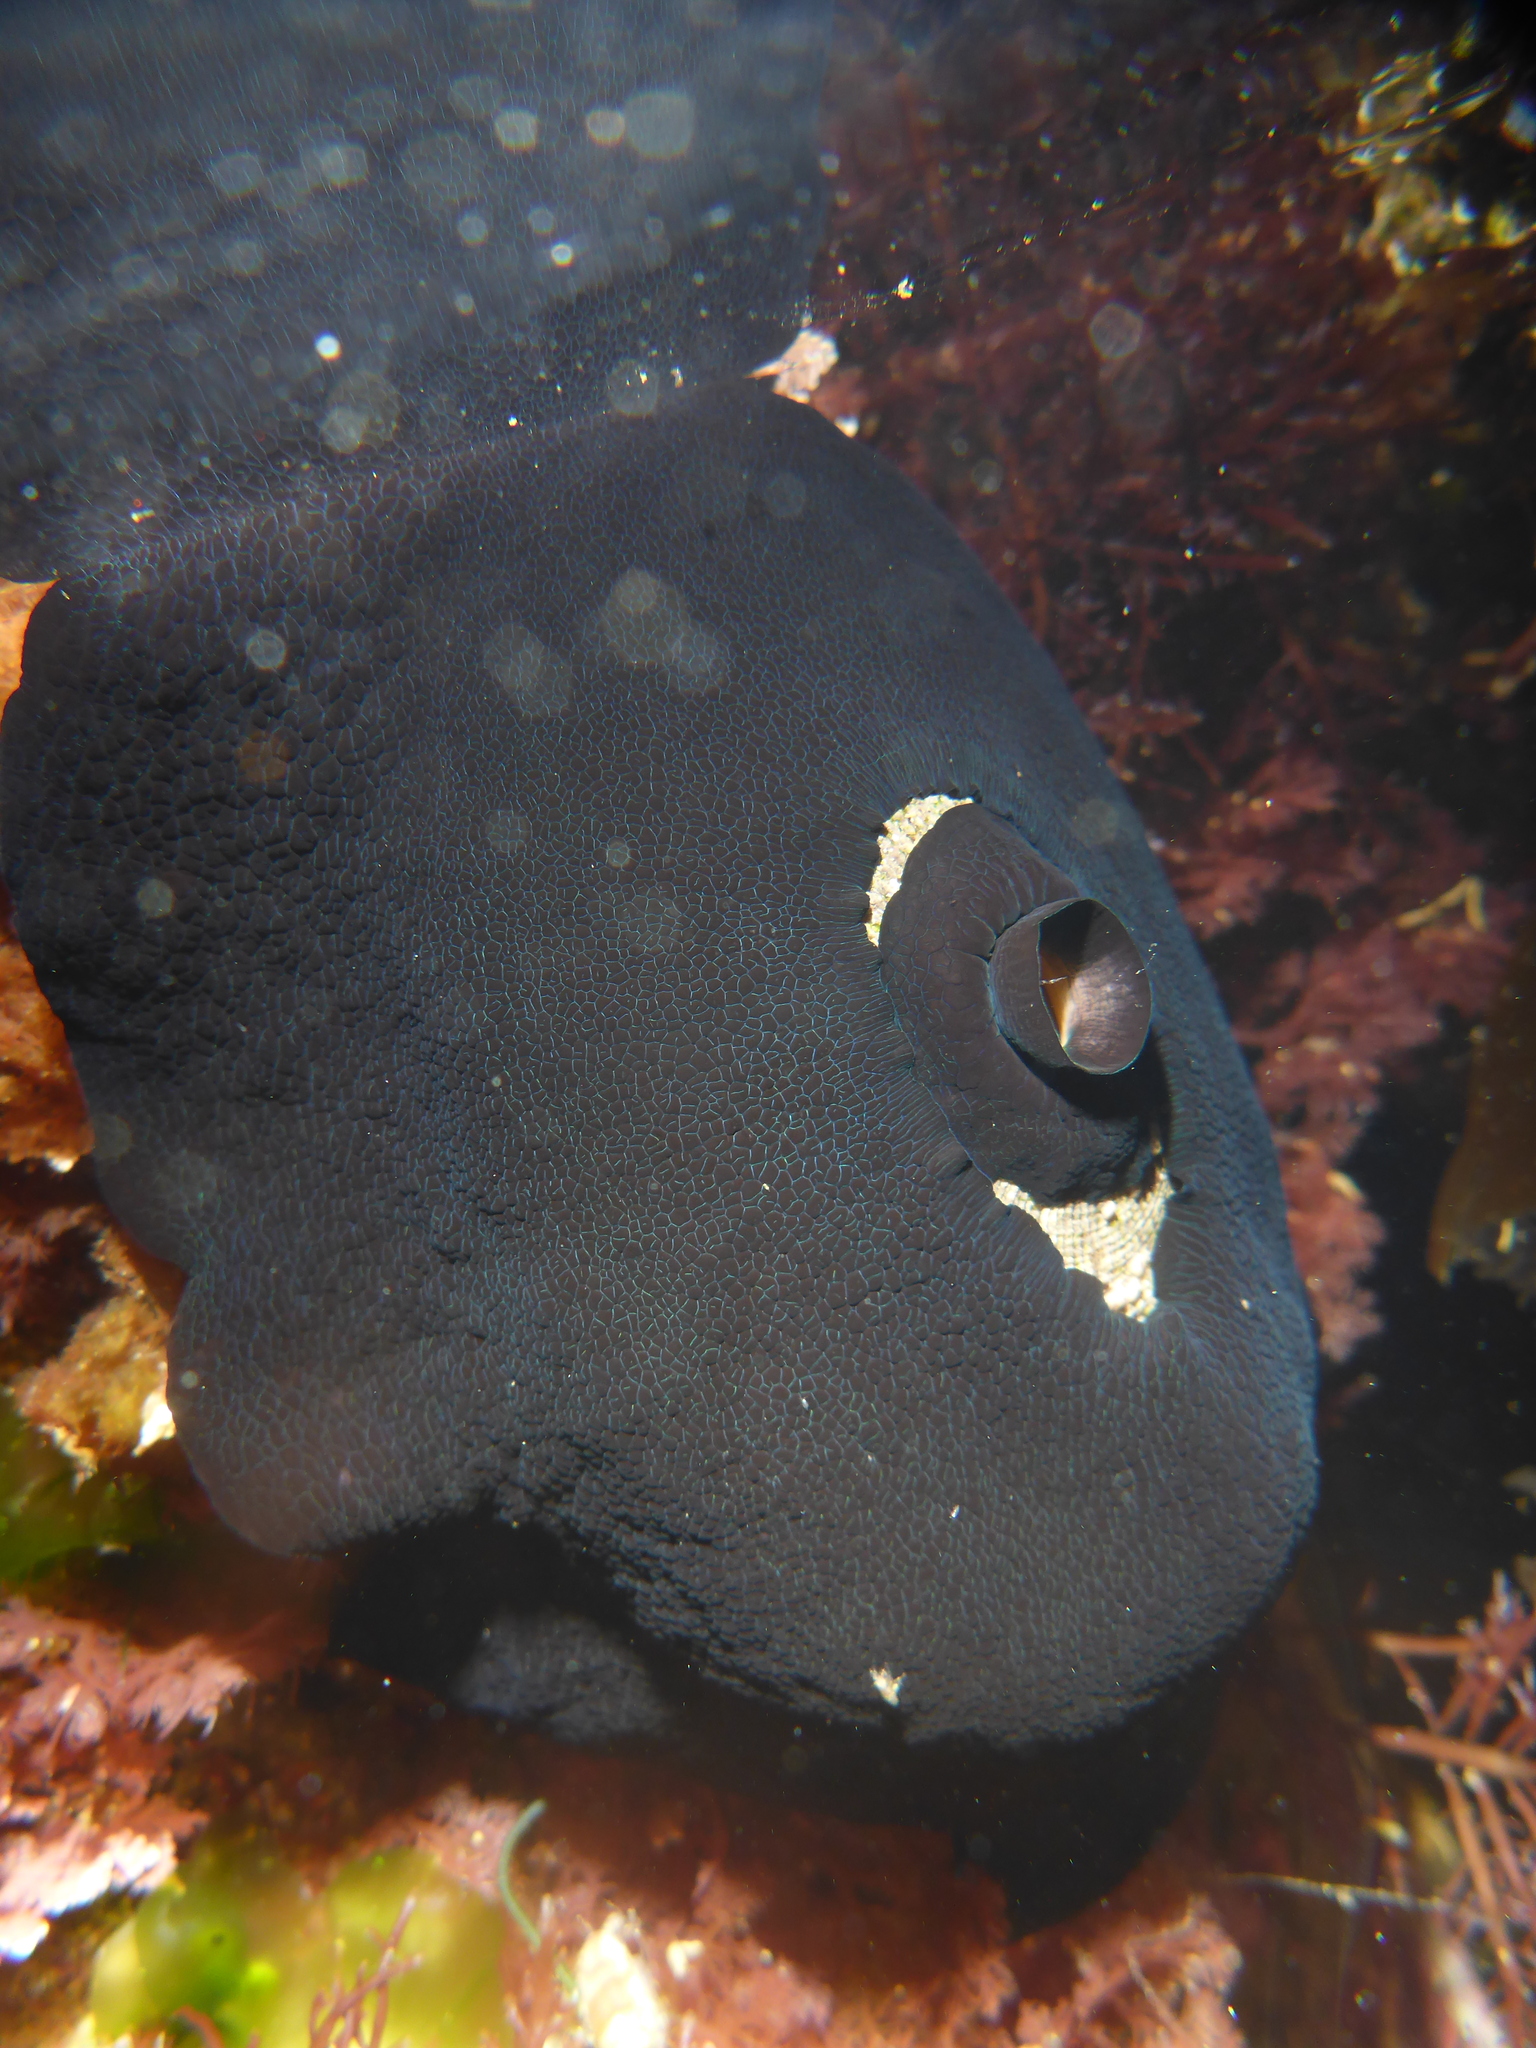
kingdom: Animalia
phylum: Mollusca
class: Gastropoda
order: Lepetellida
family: Fissurellidae
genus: Megathura
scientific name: Megathura crenulata
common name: Giant keyhole limpet
